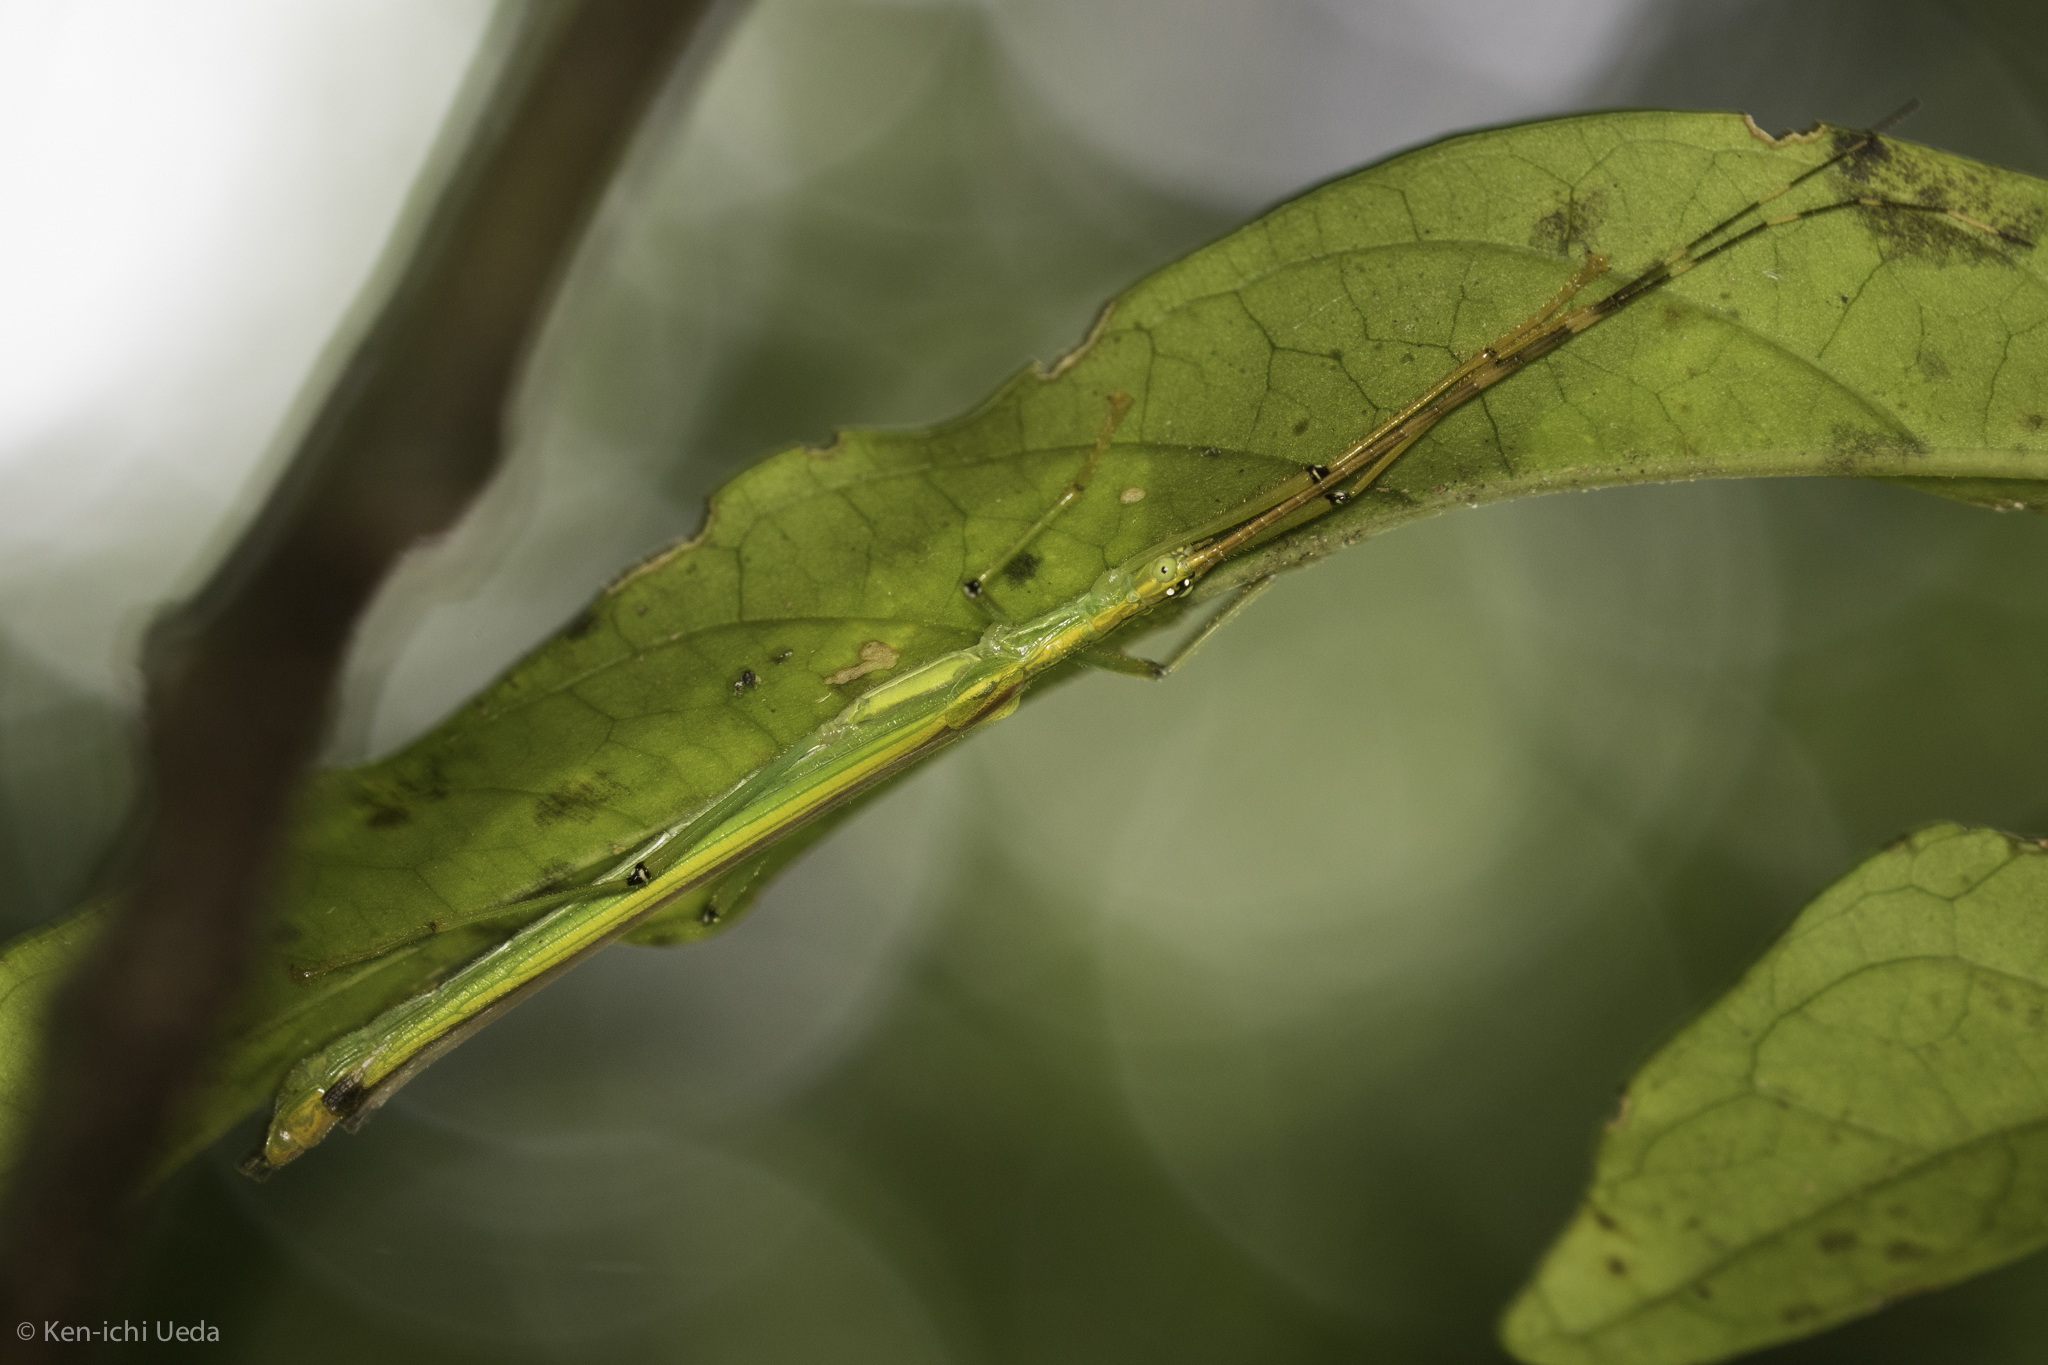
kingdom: Animalia
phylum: Arthropoda
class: Insecta
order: Phasmida
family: Pseudophasmatidae
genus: Anthericonia
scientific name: Anthericonia anketeschke
